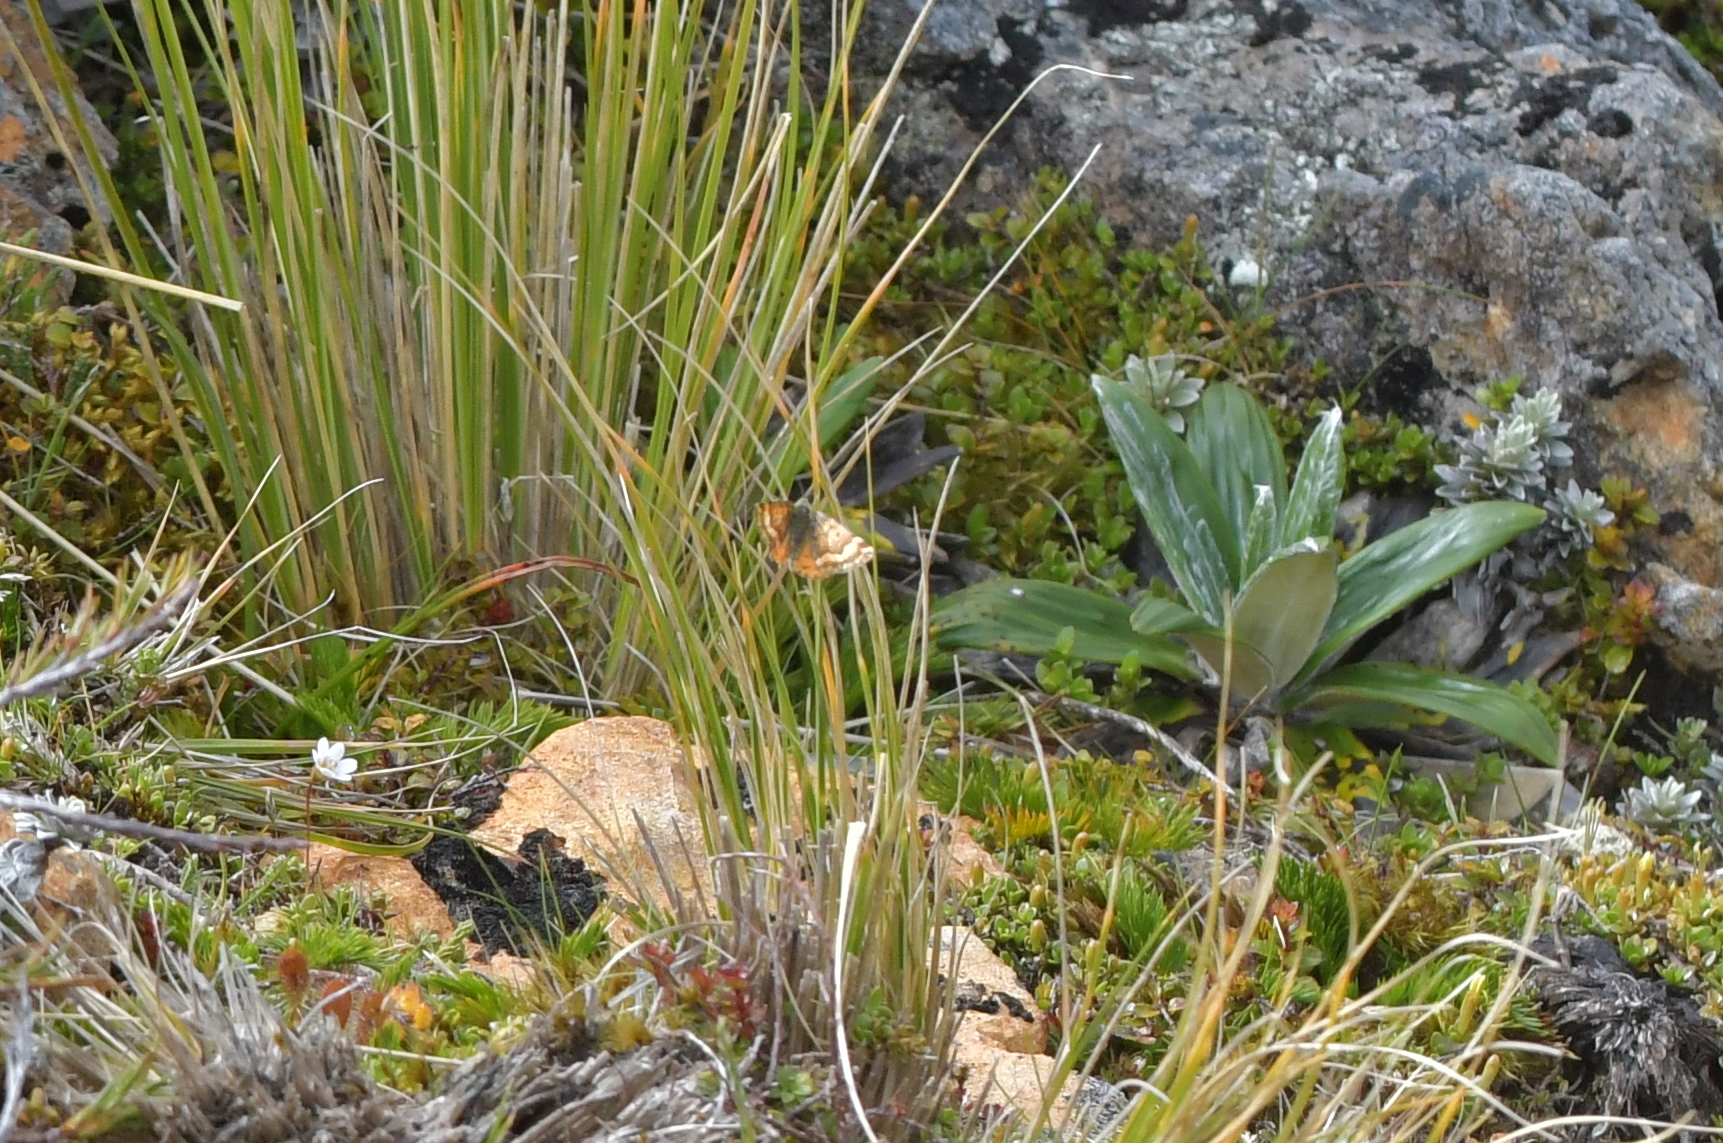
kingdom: Animalia
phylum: Arthropoda
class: Insecta
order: Lepidoptera
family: Geometridae
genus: Dasyuris
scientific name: Dasyuris partheniata
